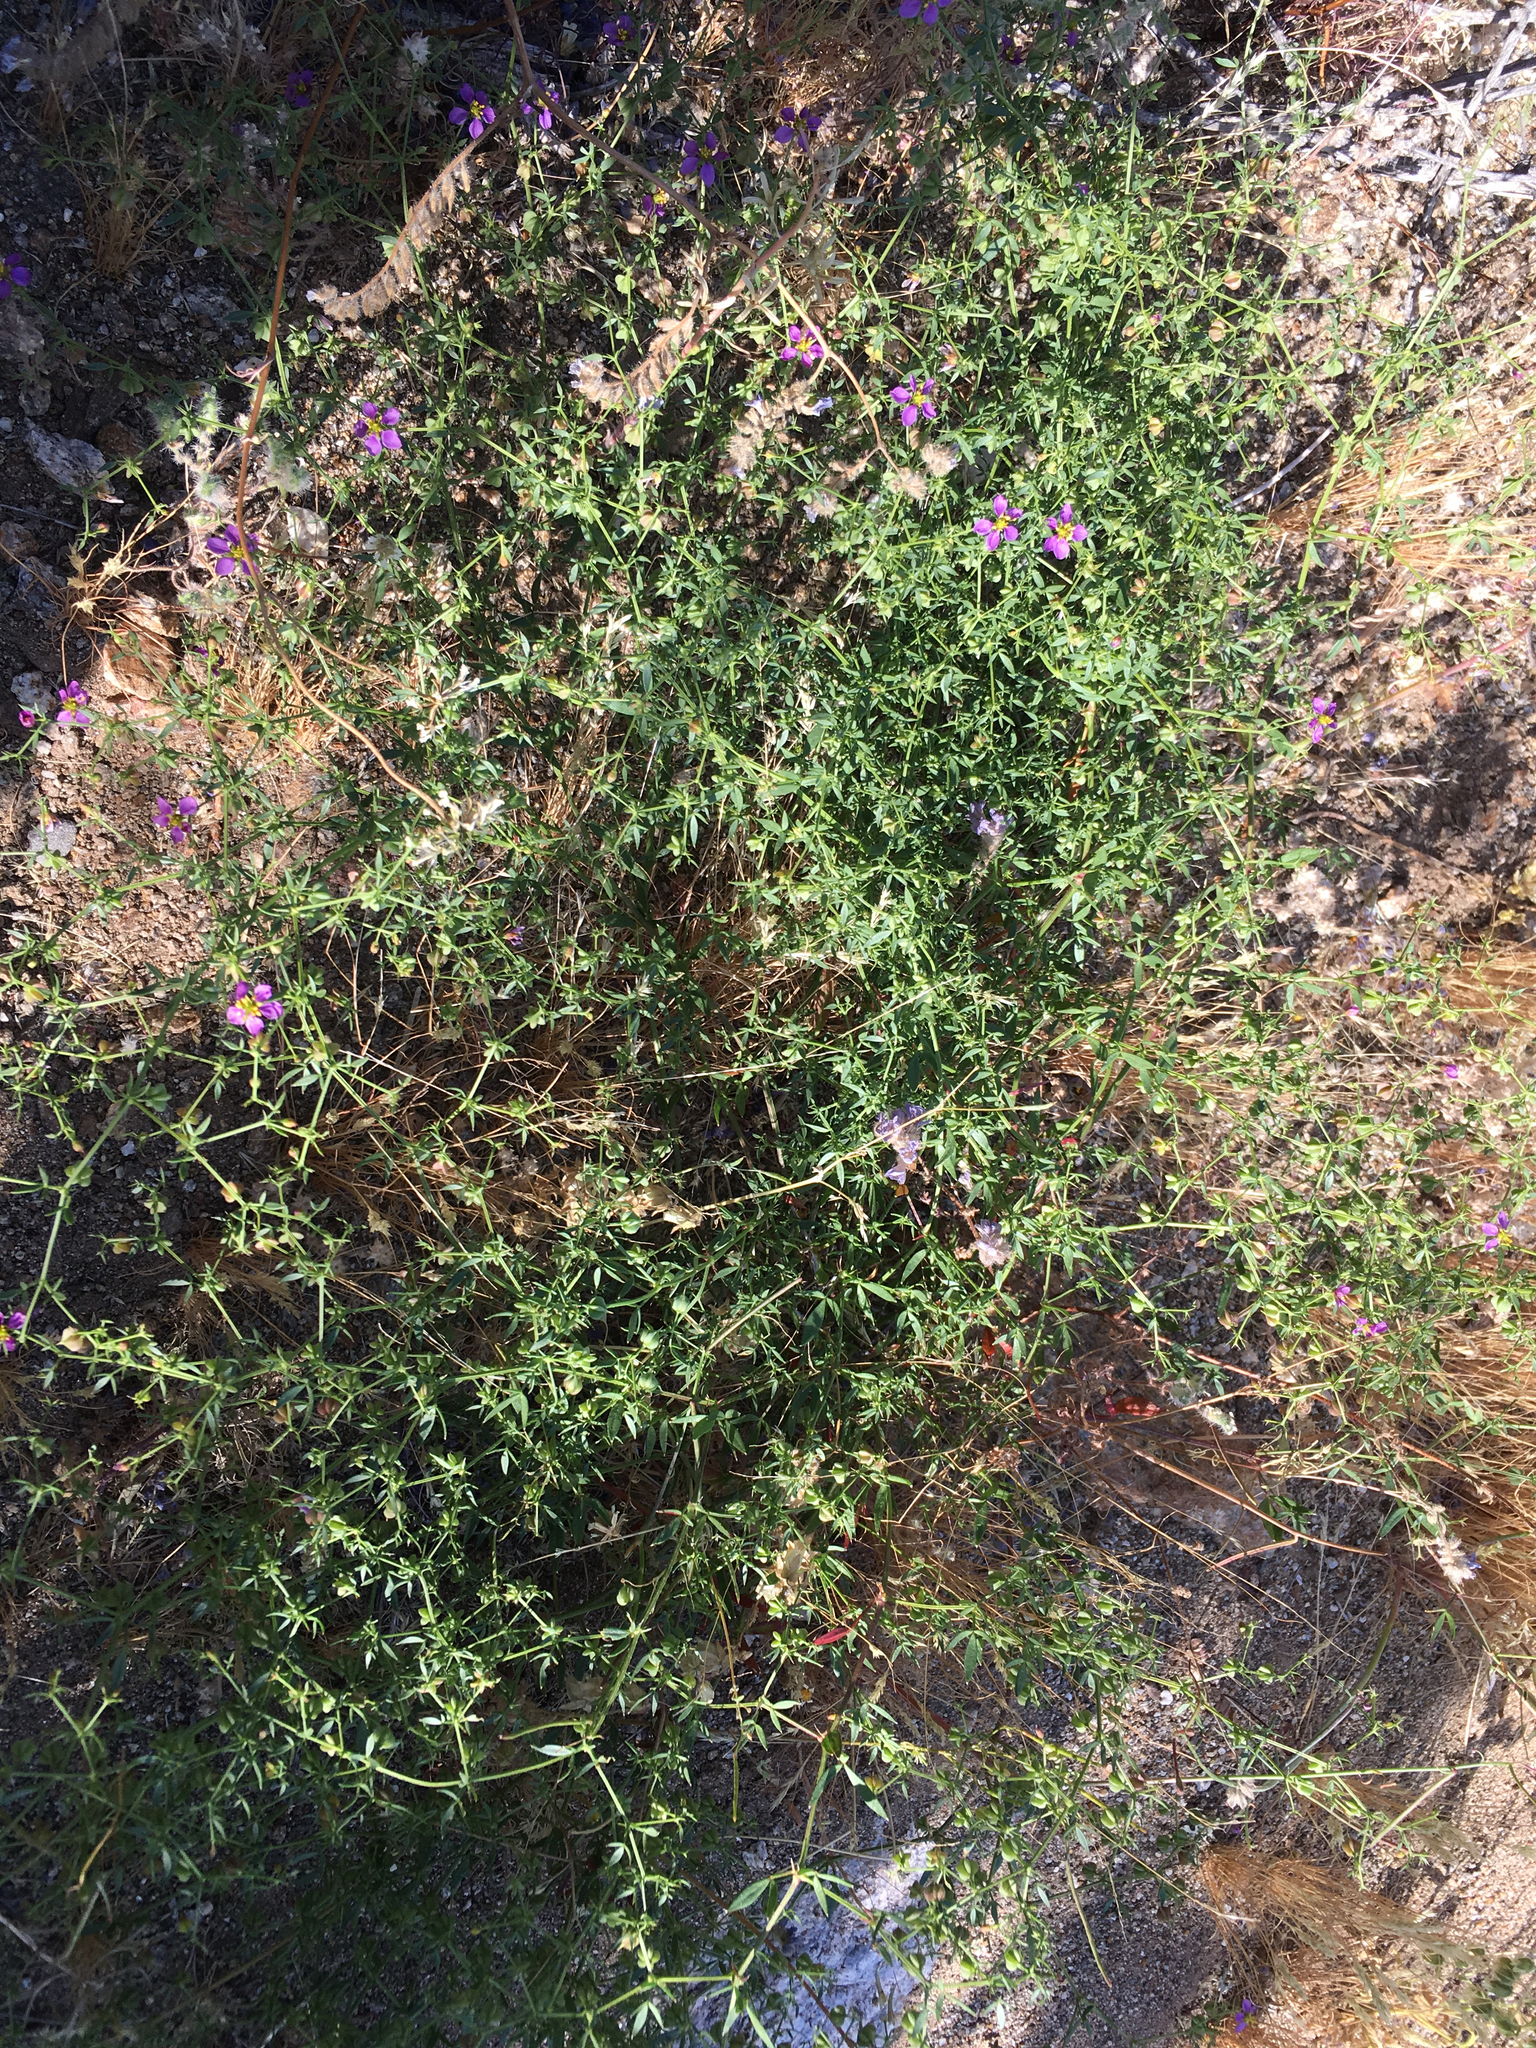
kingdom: Plantae
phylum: Tracheophyta
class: Magnoliopsida
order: Zygophyllales
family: Zygophyllaceae
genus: Fagonia
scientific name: Fagonia laevis
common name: California fagonbush
